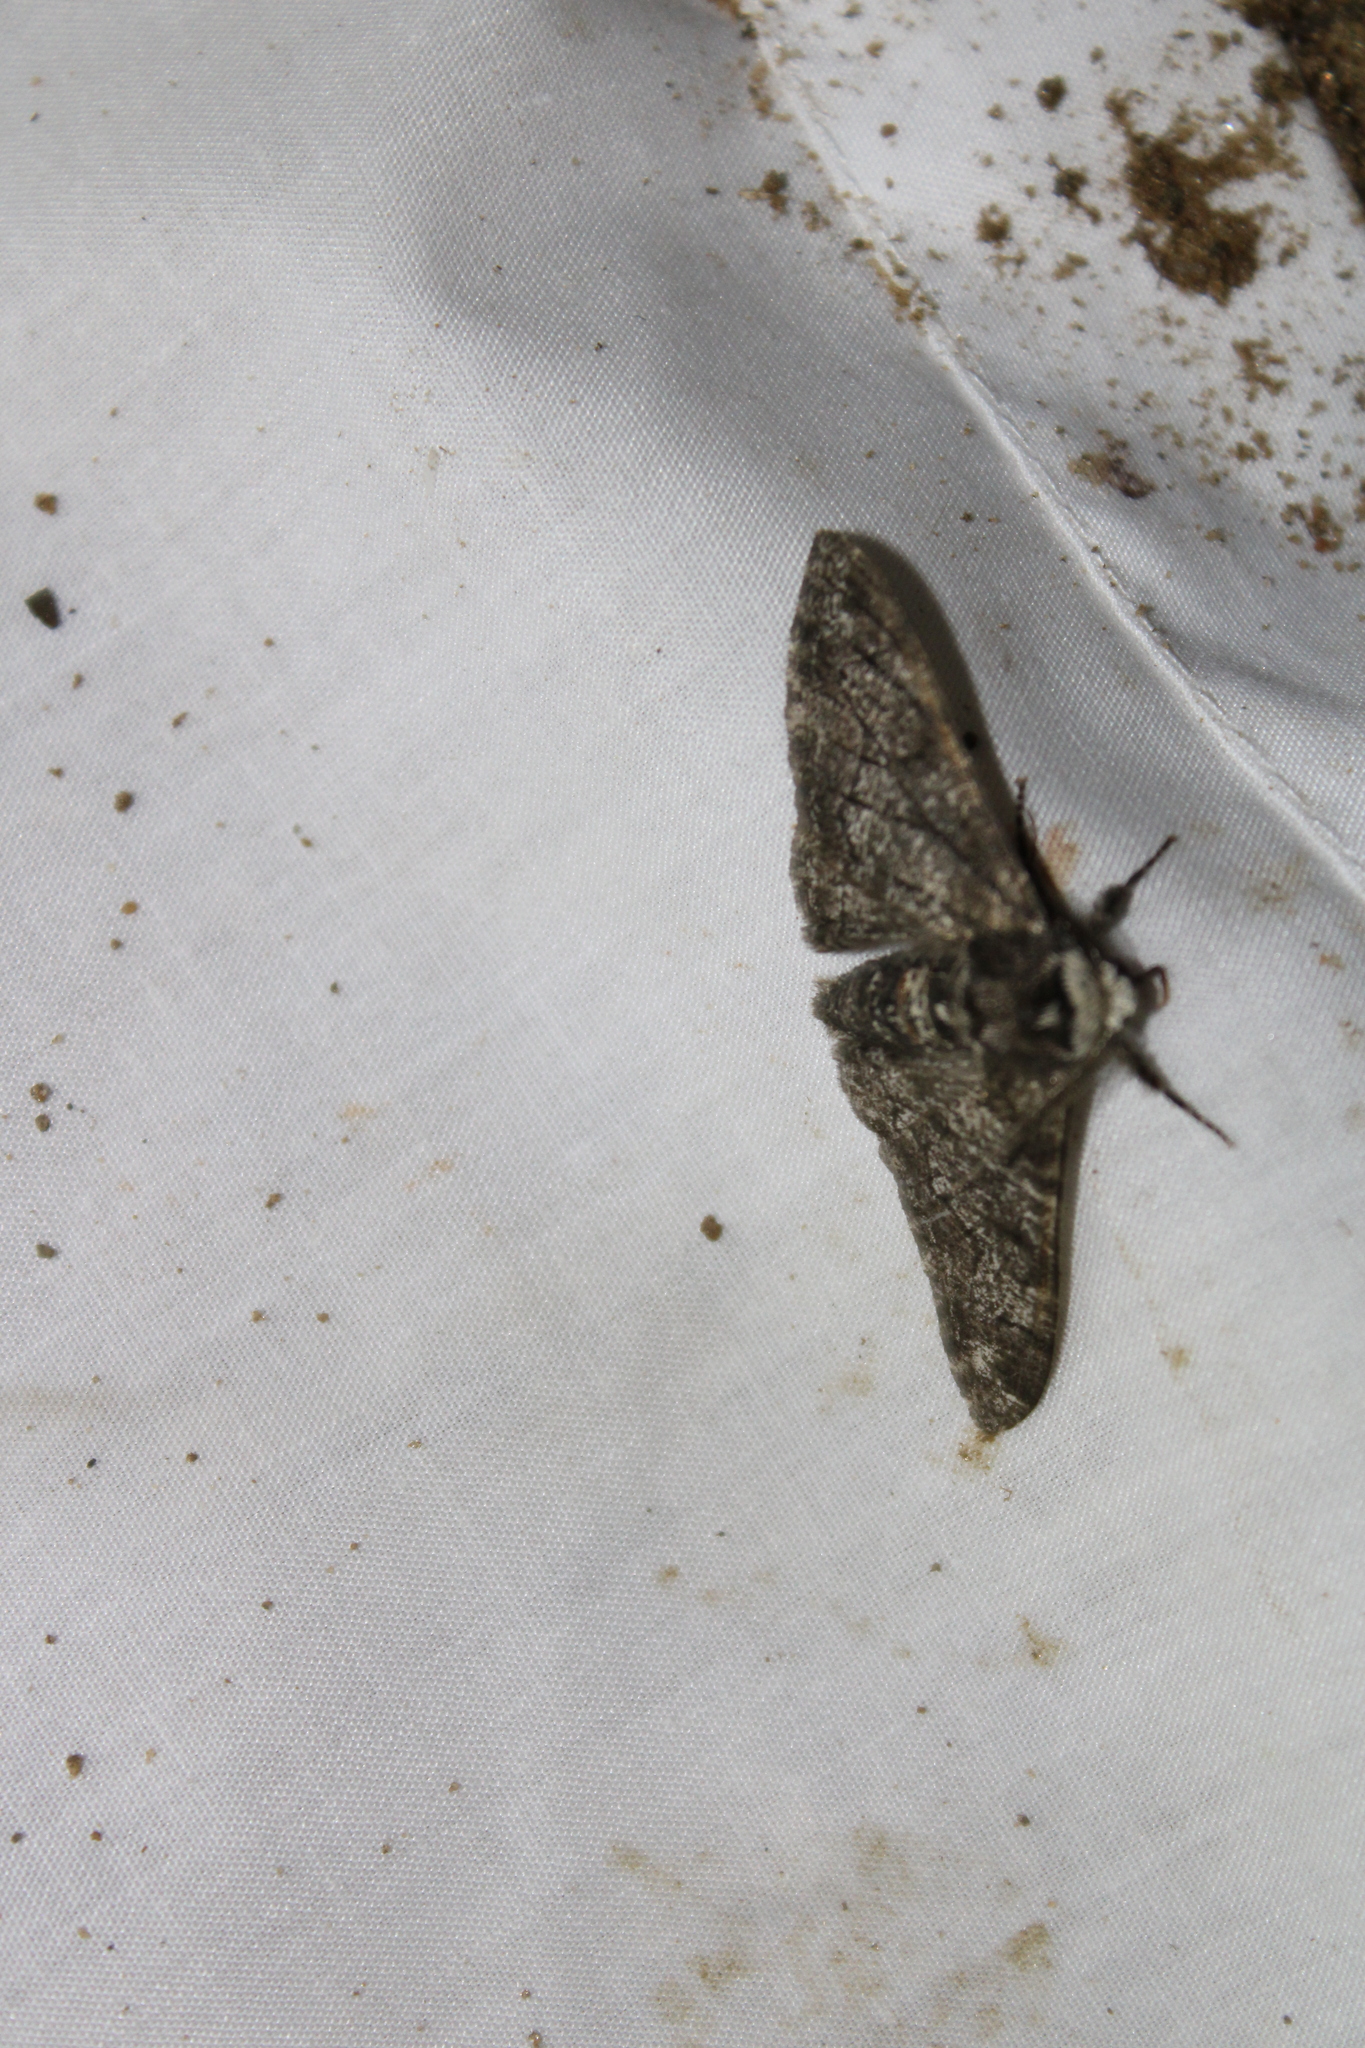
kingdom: Animalia
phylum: Arthropoda
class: Insecta
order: Lepidoptera
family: Geometridae
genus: Biston
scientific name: Biston betularia
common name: Peppered moth
